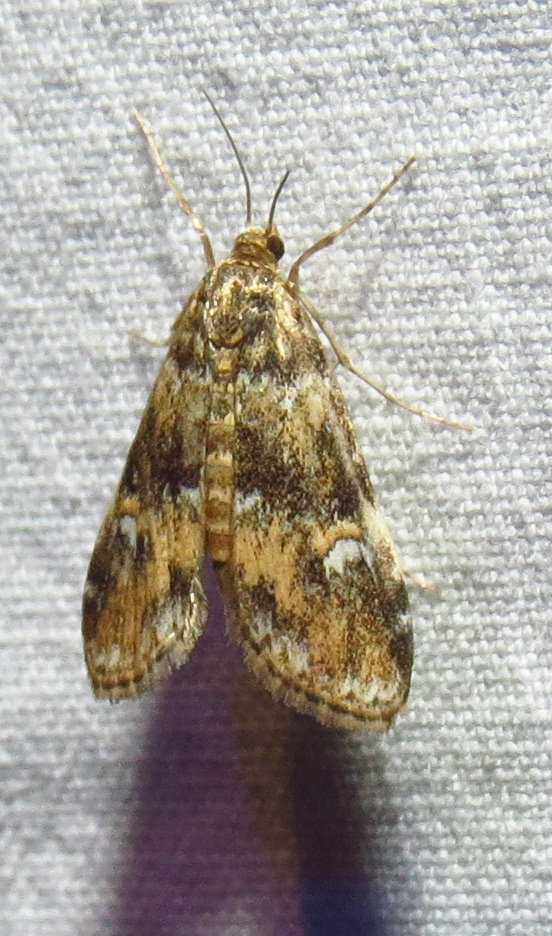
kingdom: Animalia
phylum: Arthropoda
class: Insecta
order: Lepidoptera
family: Crambidae
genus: Elophila
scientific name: Elophila obliteralis
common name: Waterlily leafcutter moth
